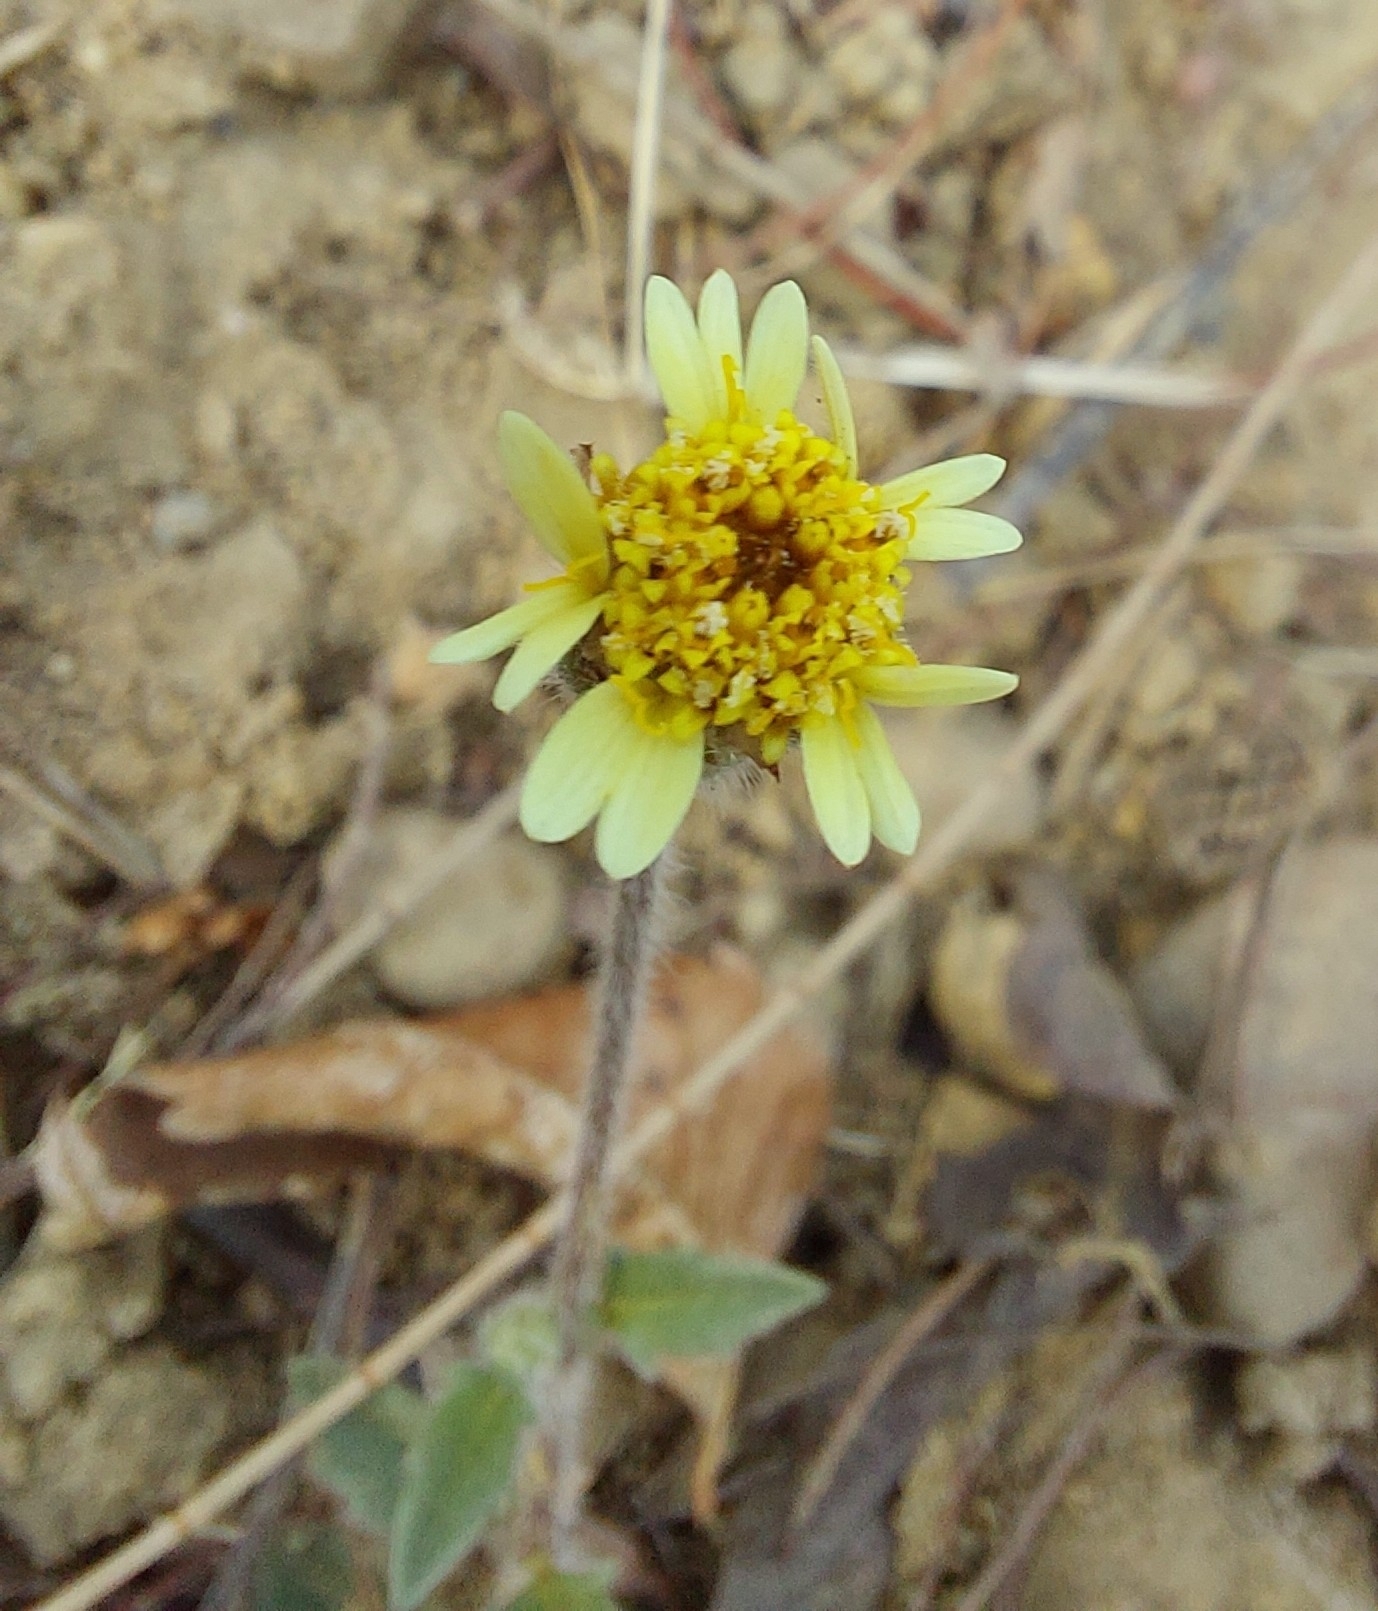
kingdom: Plantae
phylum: Tracheophyta
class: Magnoliopsida
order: Asterales
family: Asteraceae
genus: Tridax
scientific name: Tridax procumbens
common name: Coatbuttons
